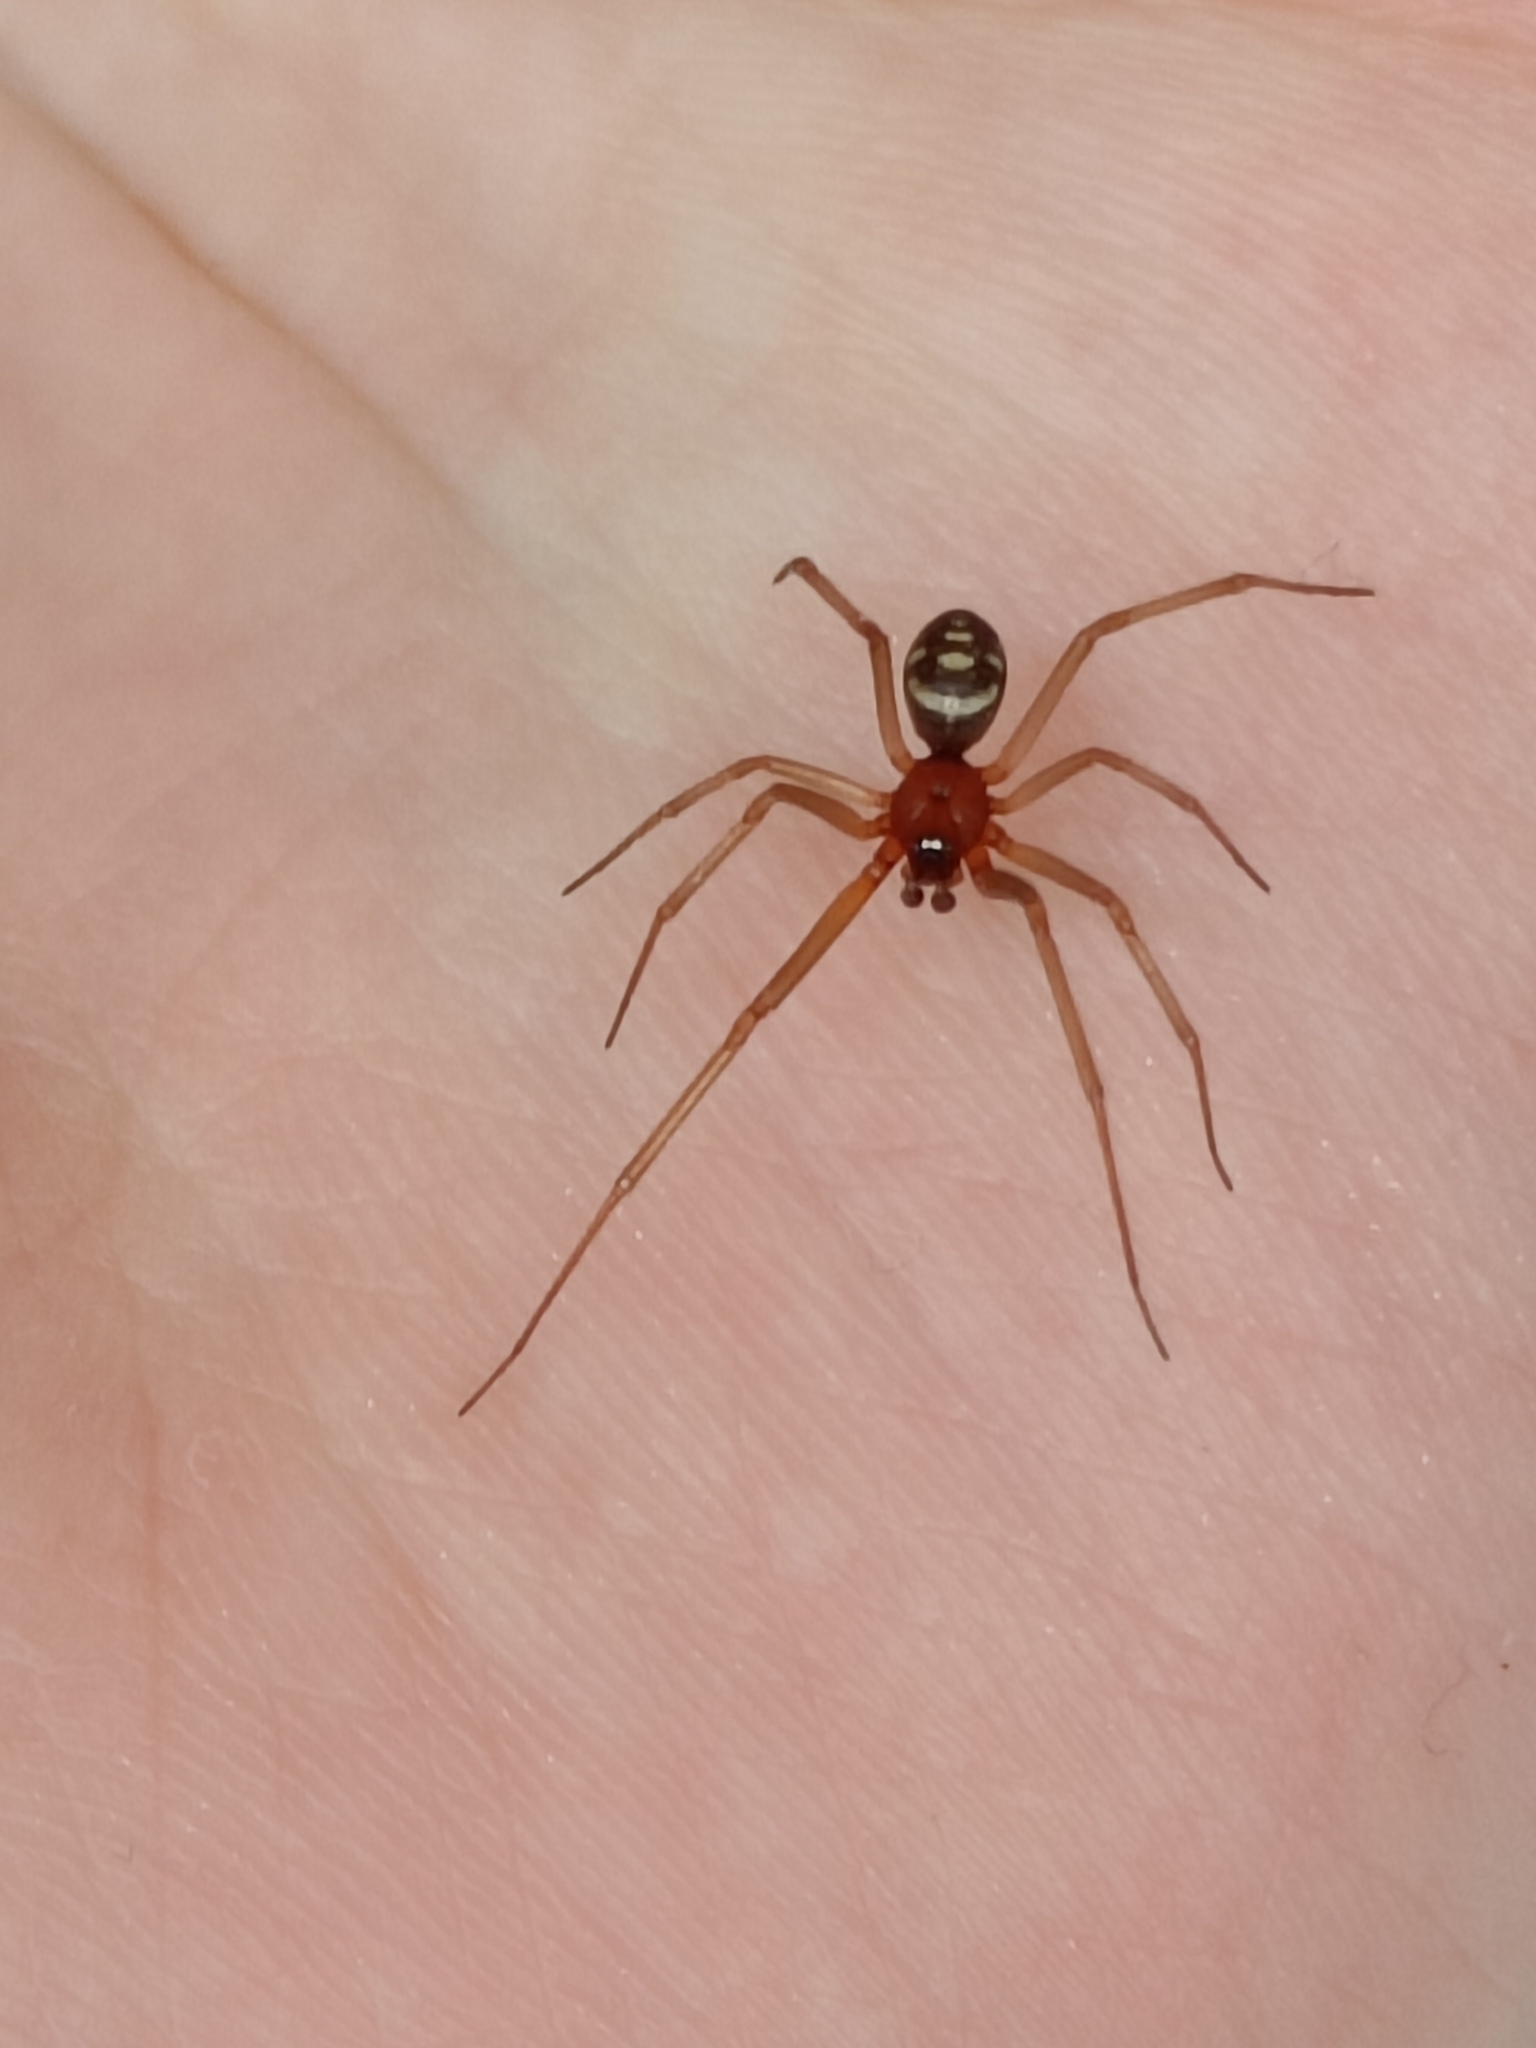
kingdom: Animalia
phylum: Arthropoda
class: Arachnida
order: Araneae
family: Theridiidae
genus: Steatoda
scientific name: Steatoda grossa
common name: False black widow
